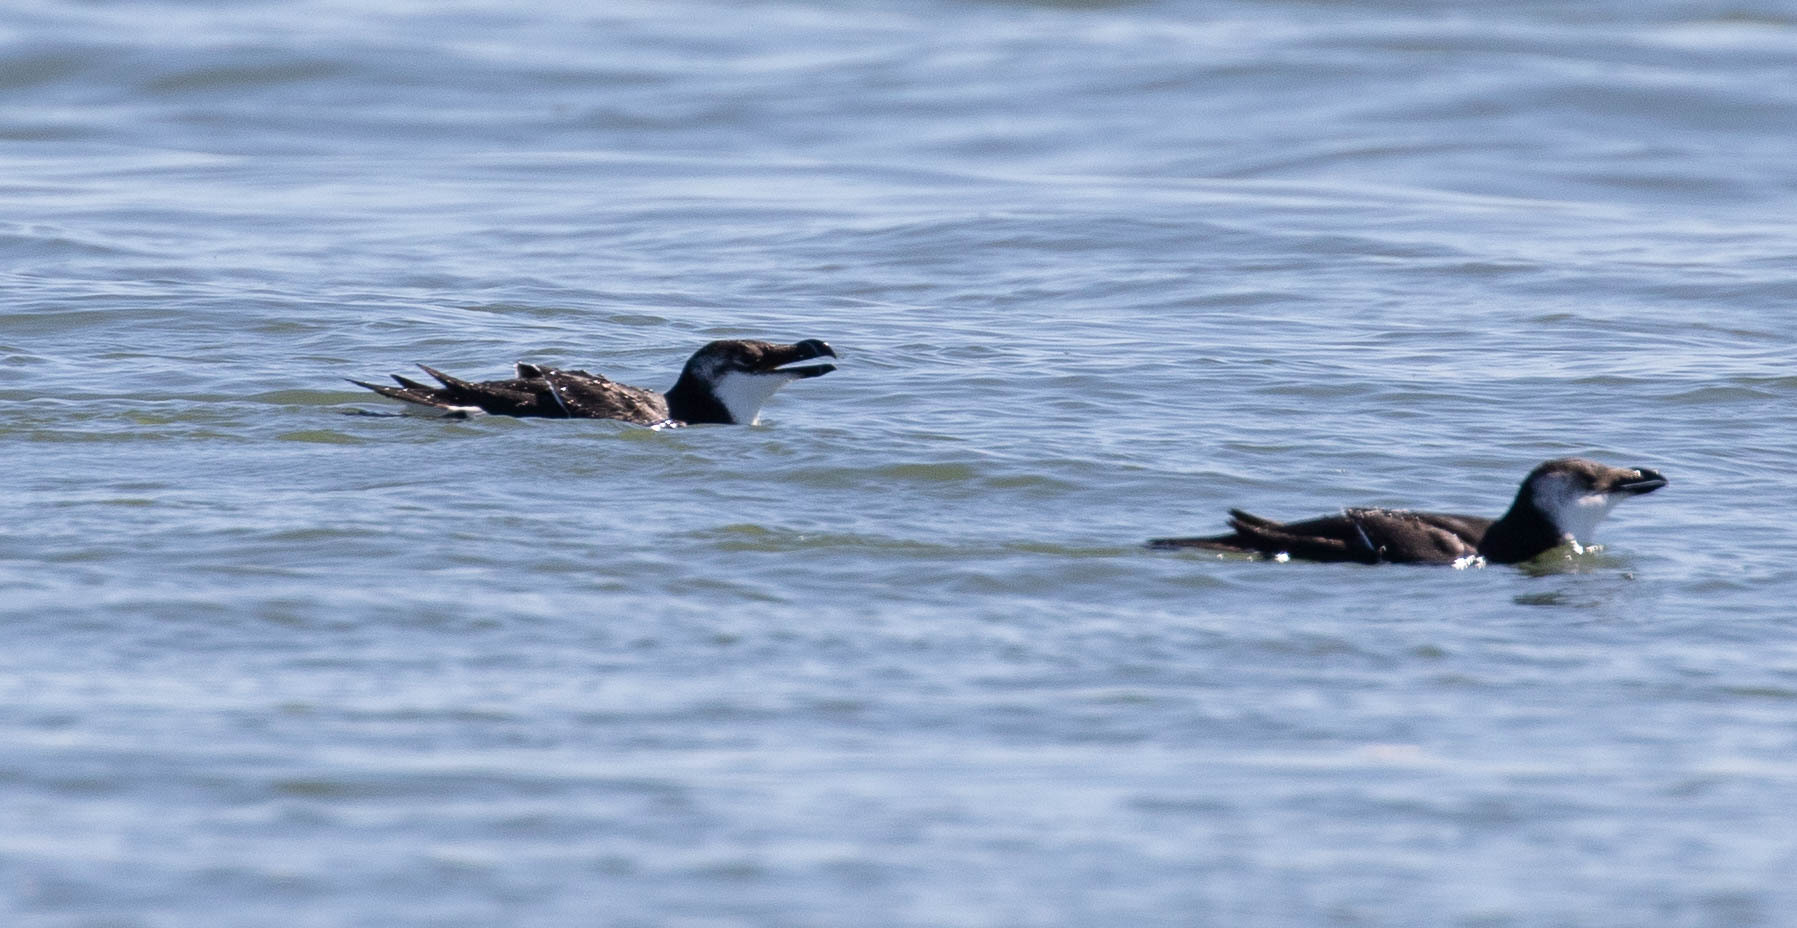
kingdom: Animalia
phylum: Chordata
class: Aves
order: Charadriiformes
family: Alcidae
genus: Alca
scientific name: Alca torda
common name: Razorbill
